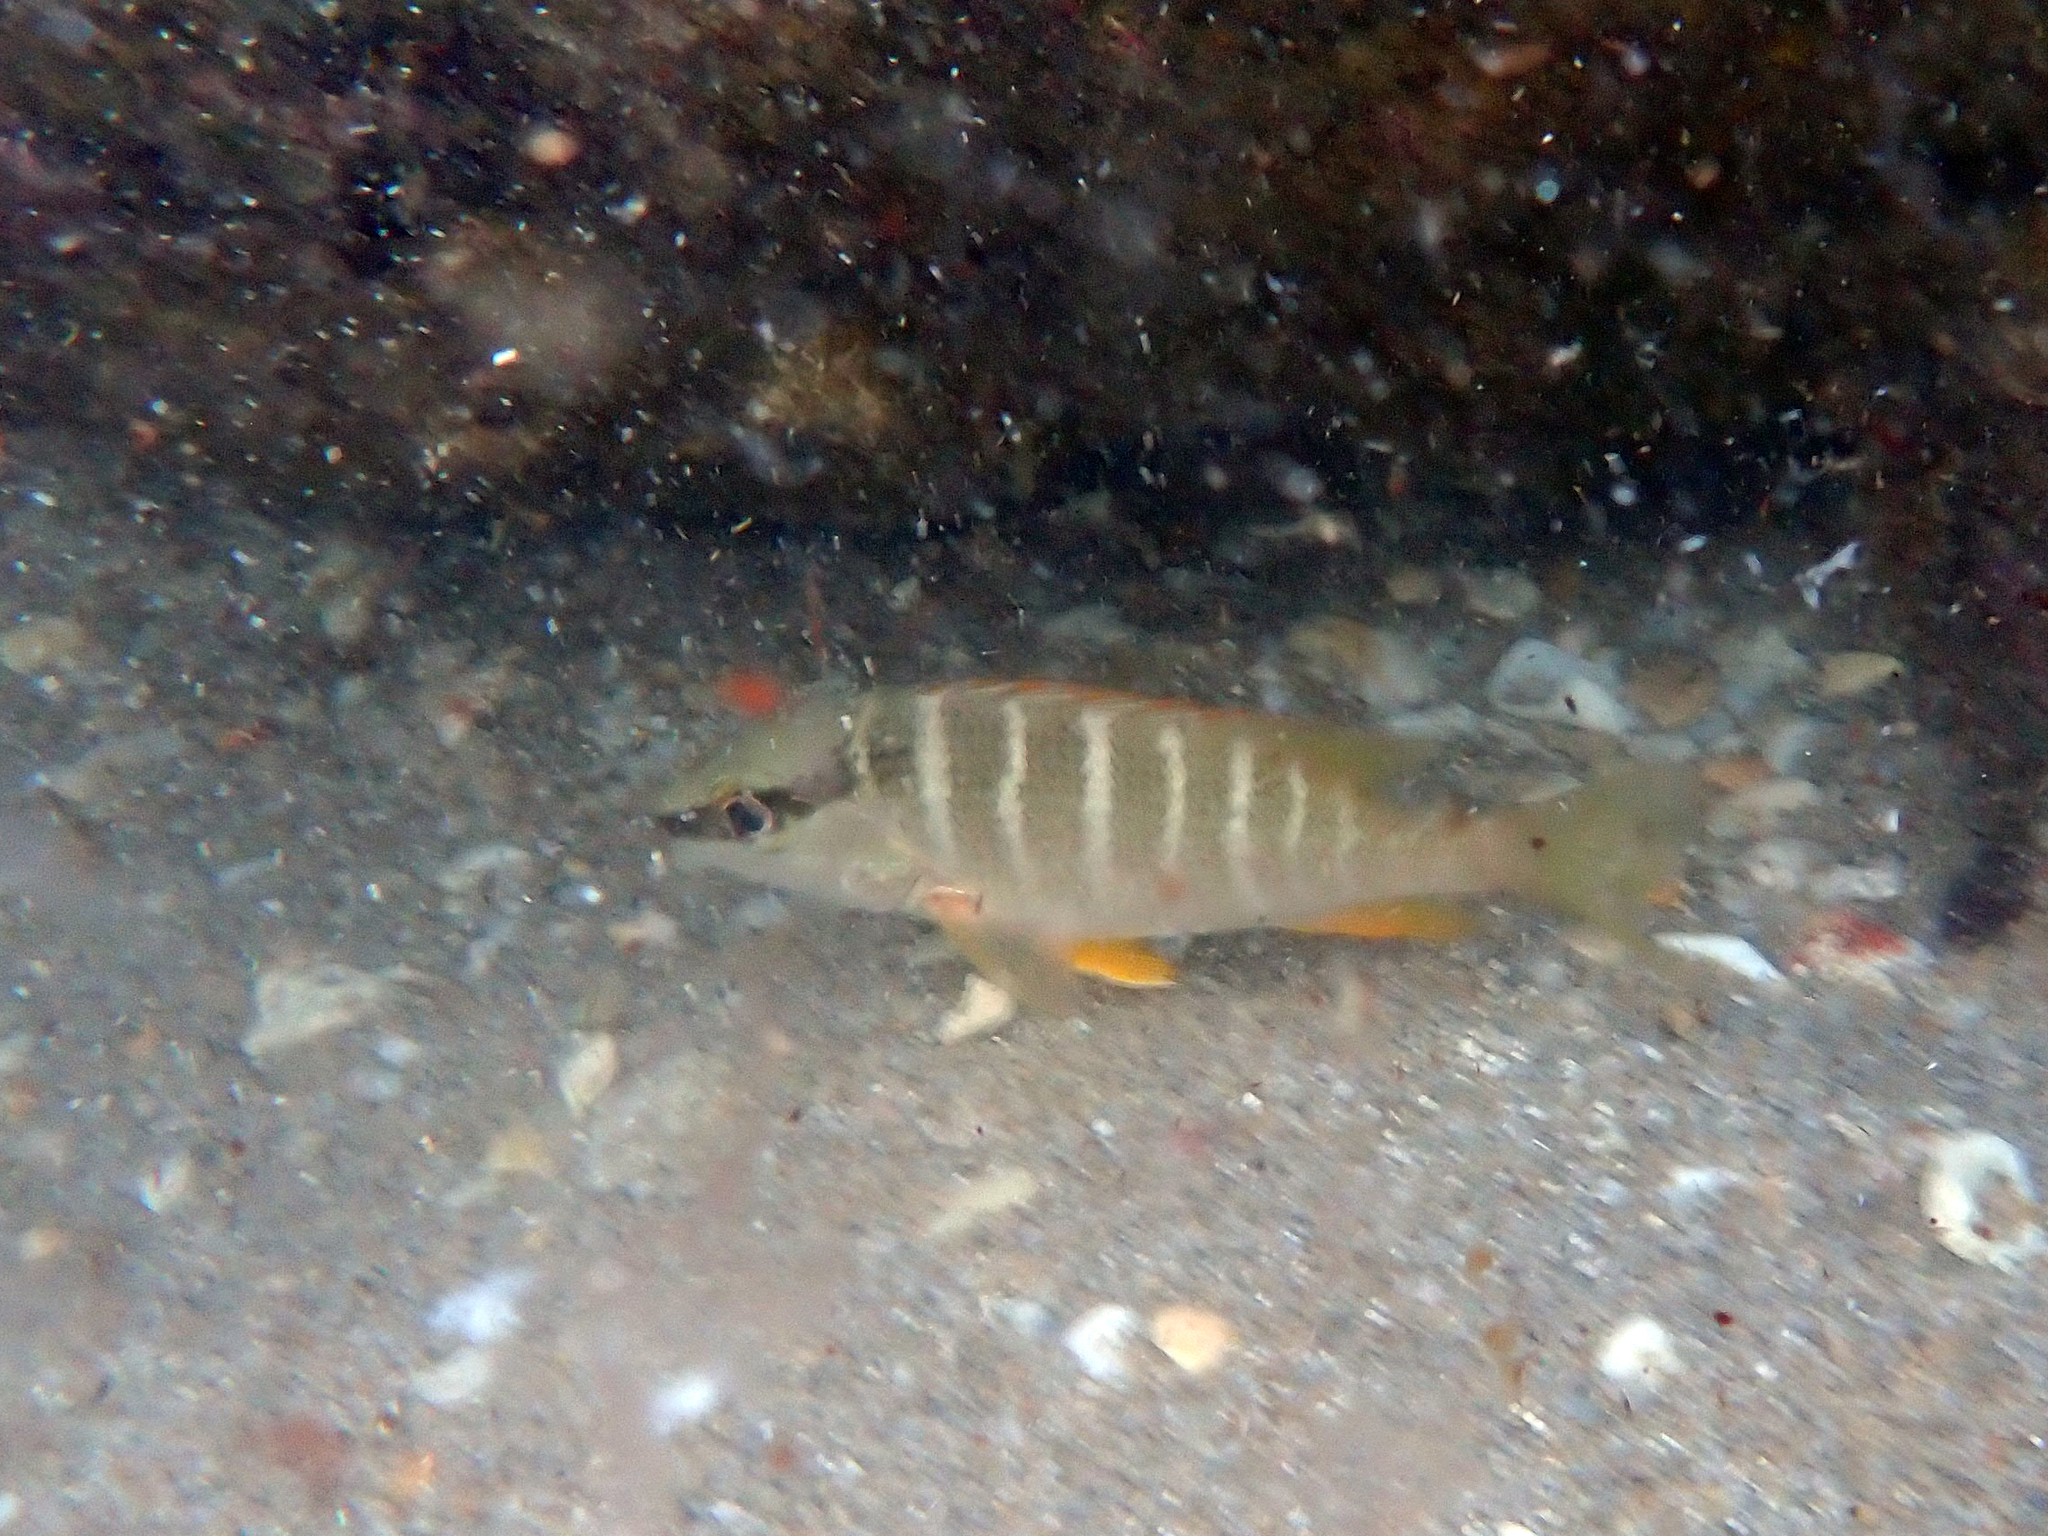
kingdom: Animalia
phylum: Chordata
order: Perciformes
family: Lutjanidae
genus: Lutjanus
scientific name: Lutjanus apodus
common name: Schoolmaster
